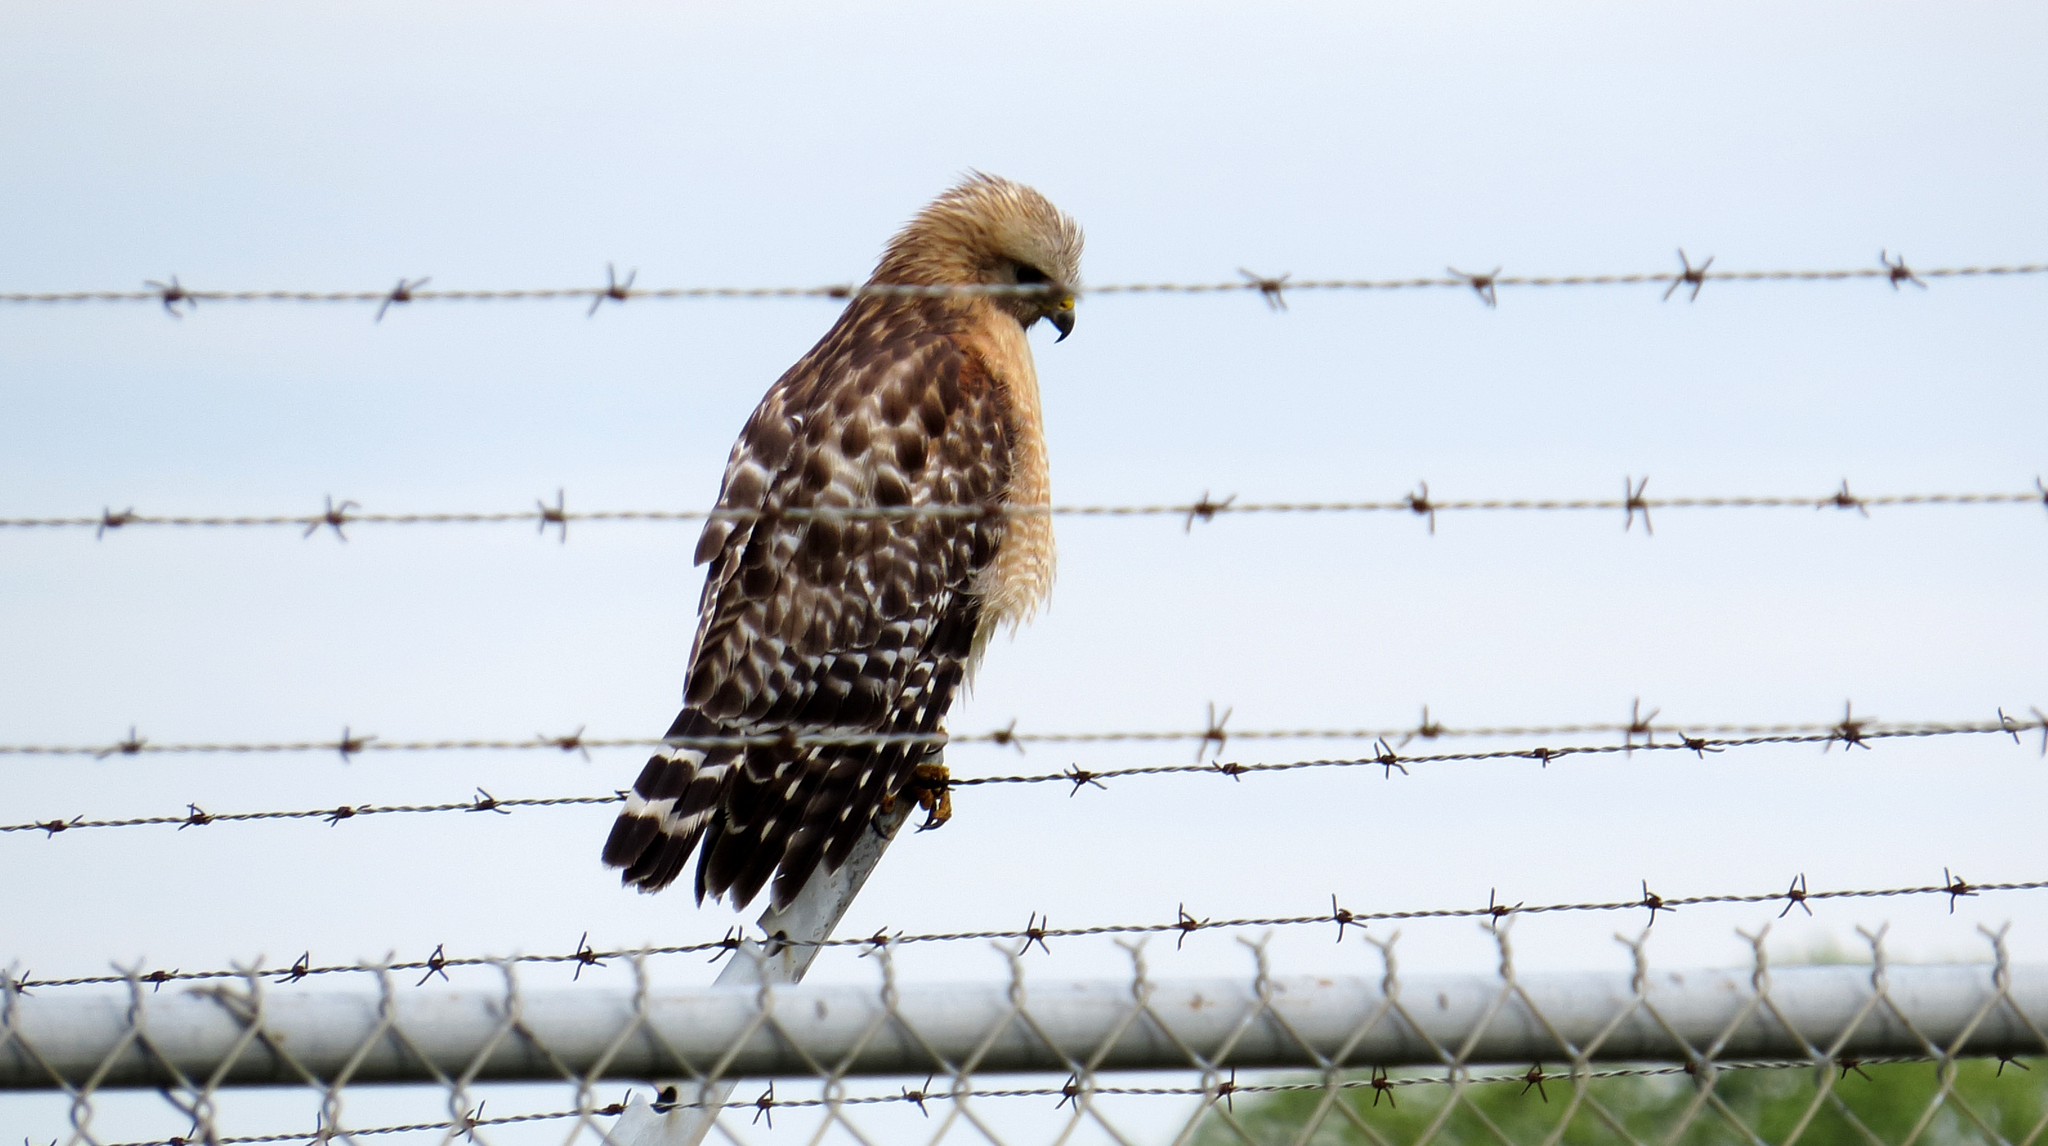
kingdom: Animalia
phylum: Chordata
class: Aves
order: Accipitriformes
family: Accipitridae
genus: Buteo
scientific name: Buteo lineatus
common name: Red-shouldered hawk
